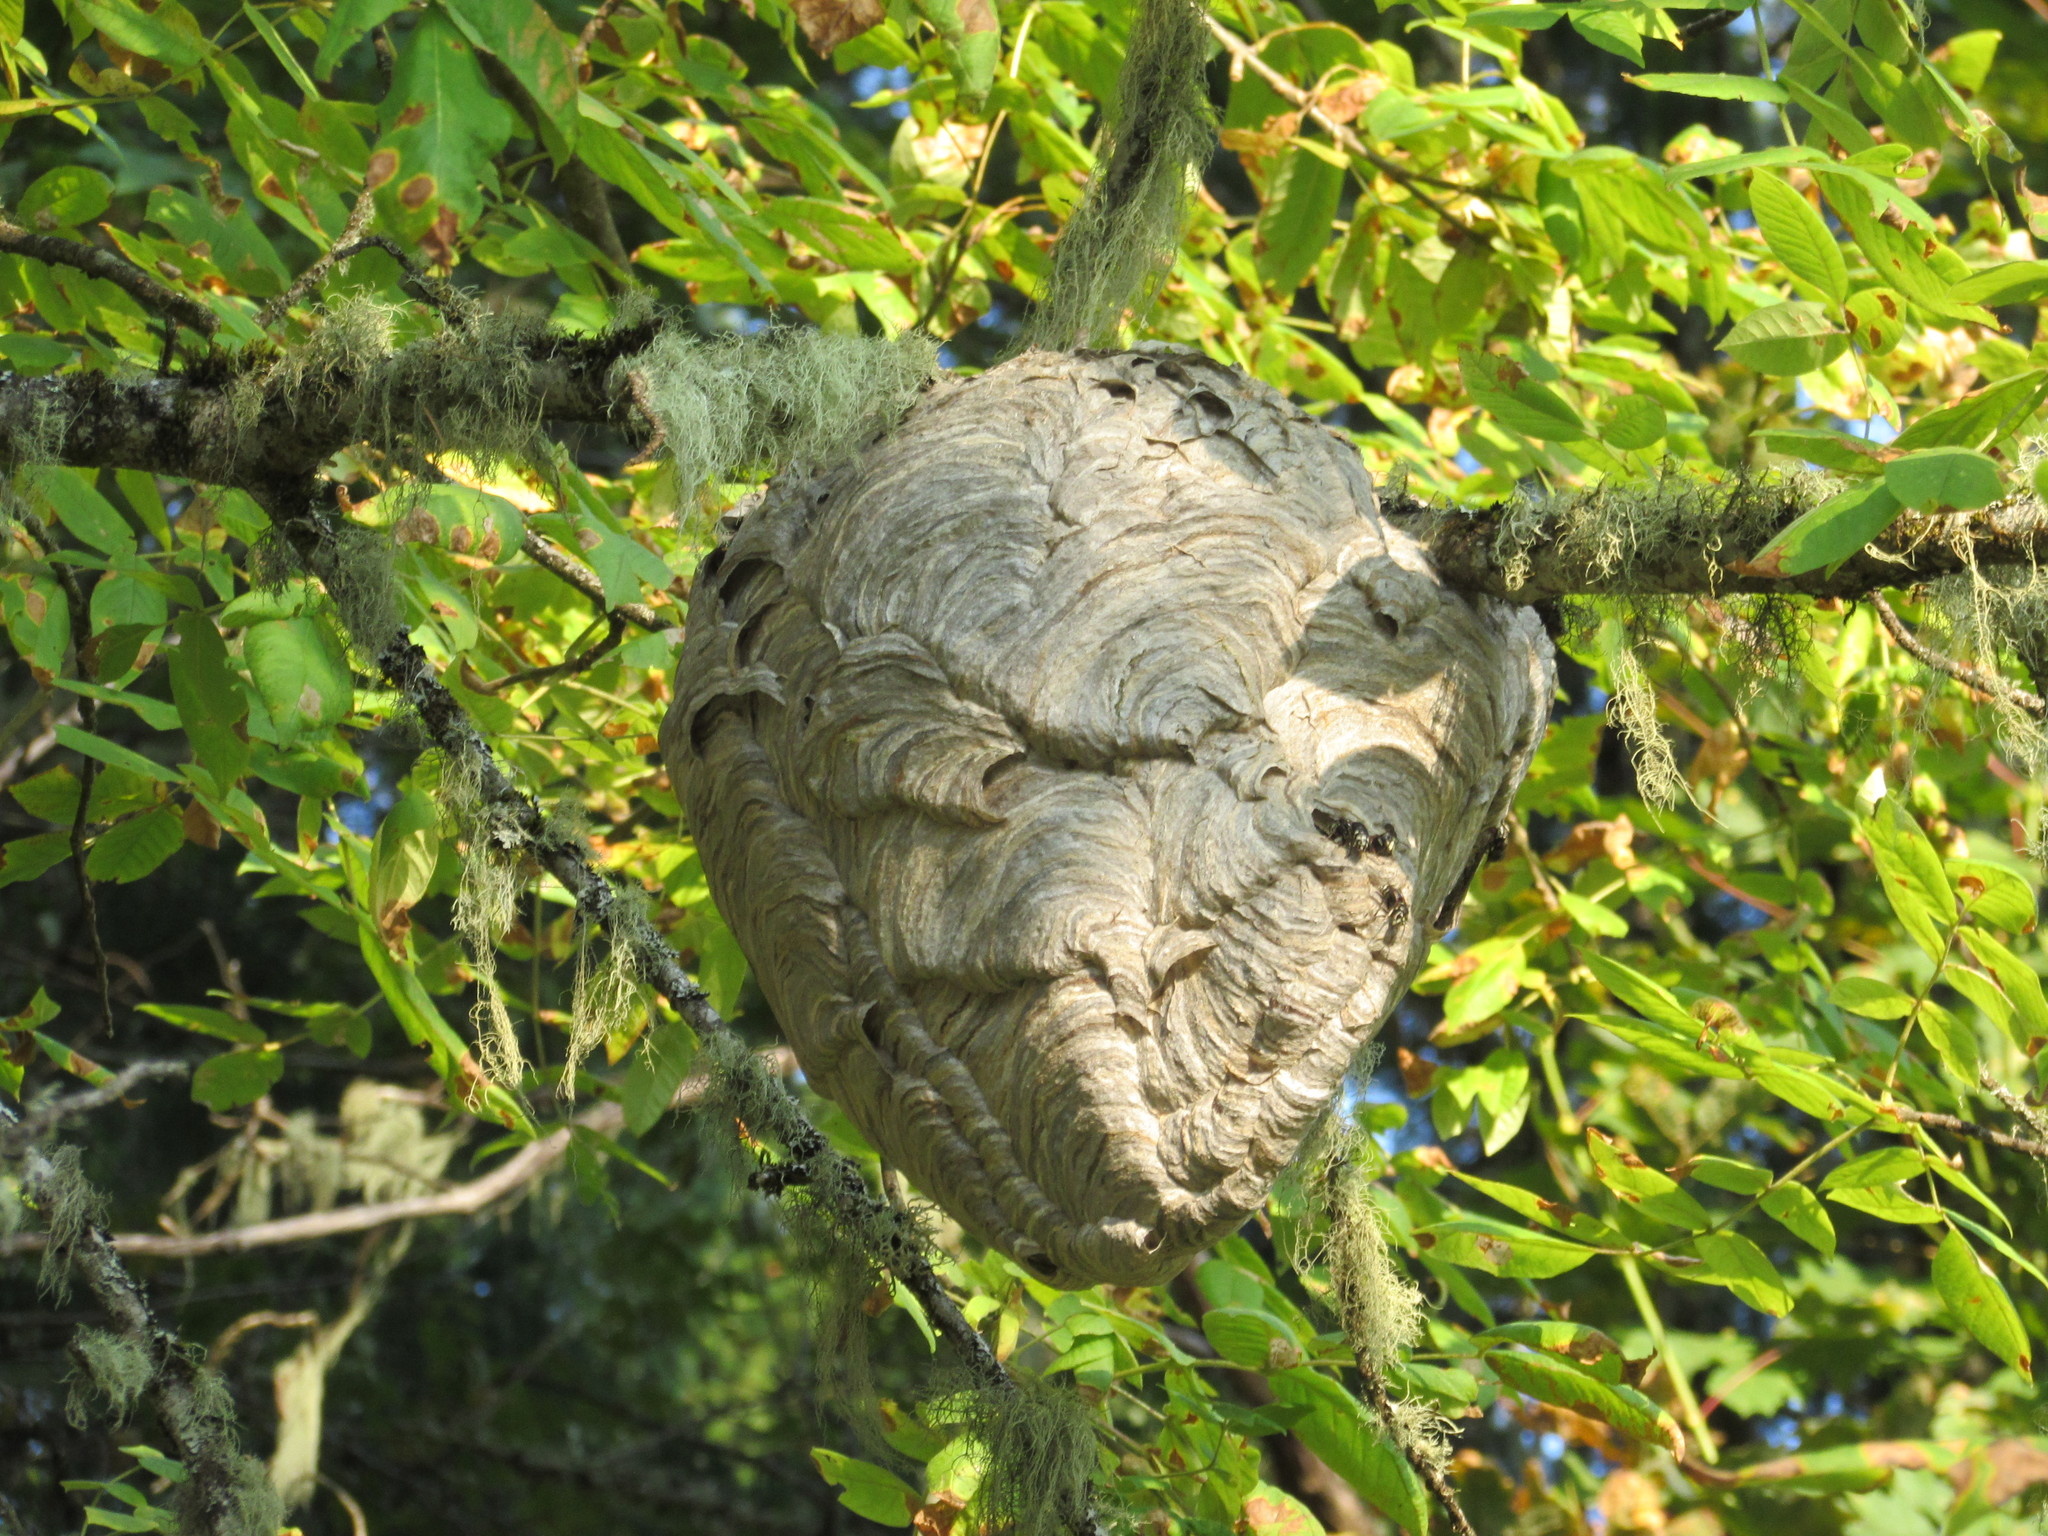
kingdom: Animalia
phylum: Arthropoda
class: Insecta
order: Hymenoptera
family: Vespidae
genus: Dolichovespula
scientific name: Dolichovespula maculata
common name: Bald-faced hornet
